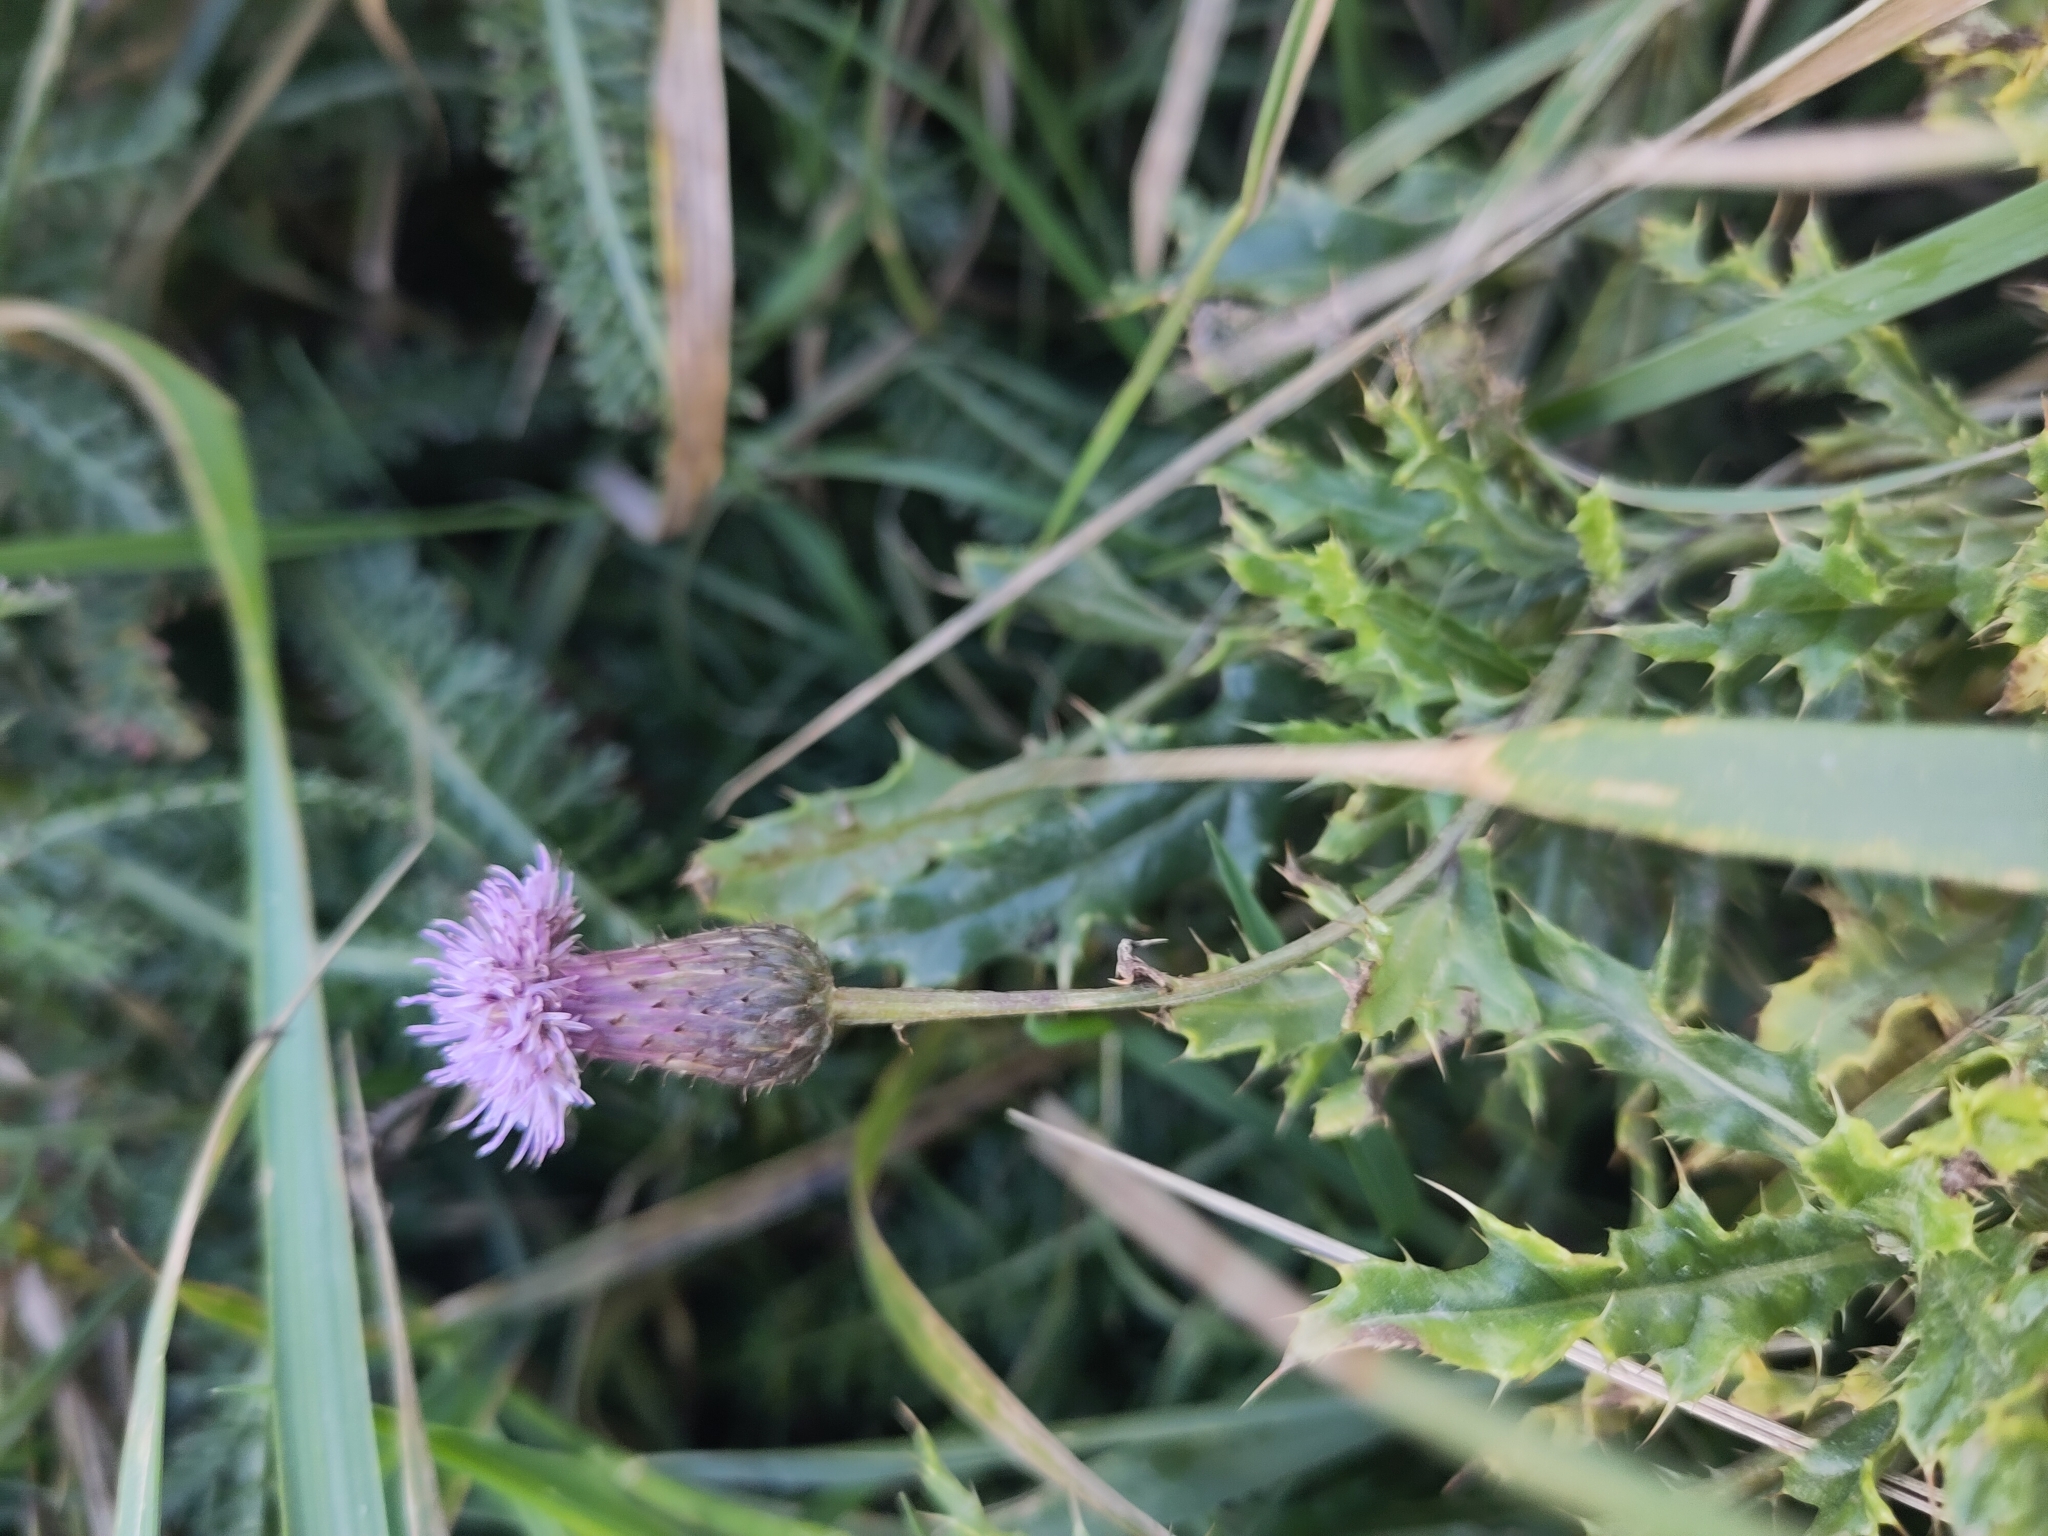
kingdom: Plantae
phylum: Tracheophyta
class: Magnoliopsida
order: Asterales
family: Asteraceae
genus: Cirsium
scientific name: Cirsium arvense
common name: Creeping thistle
